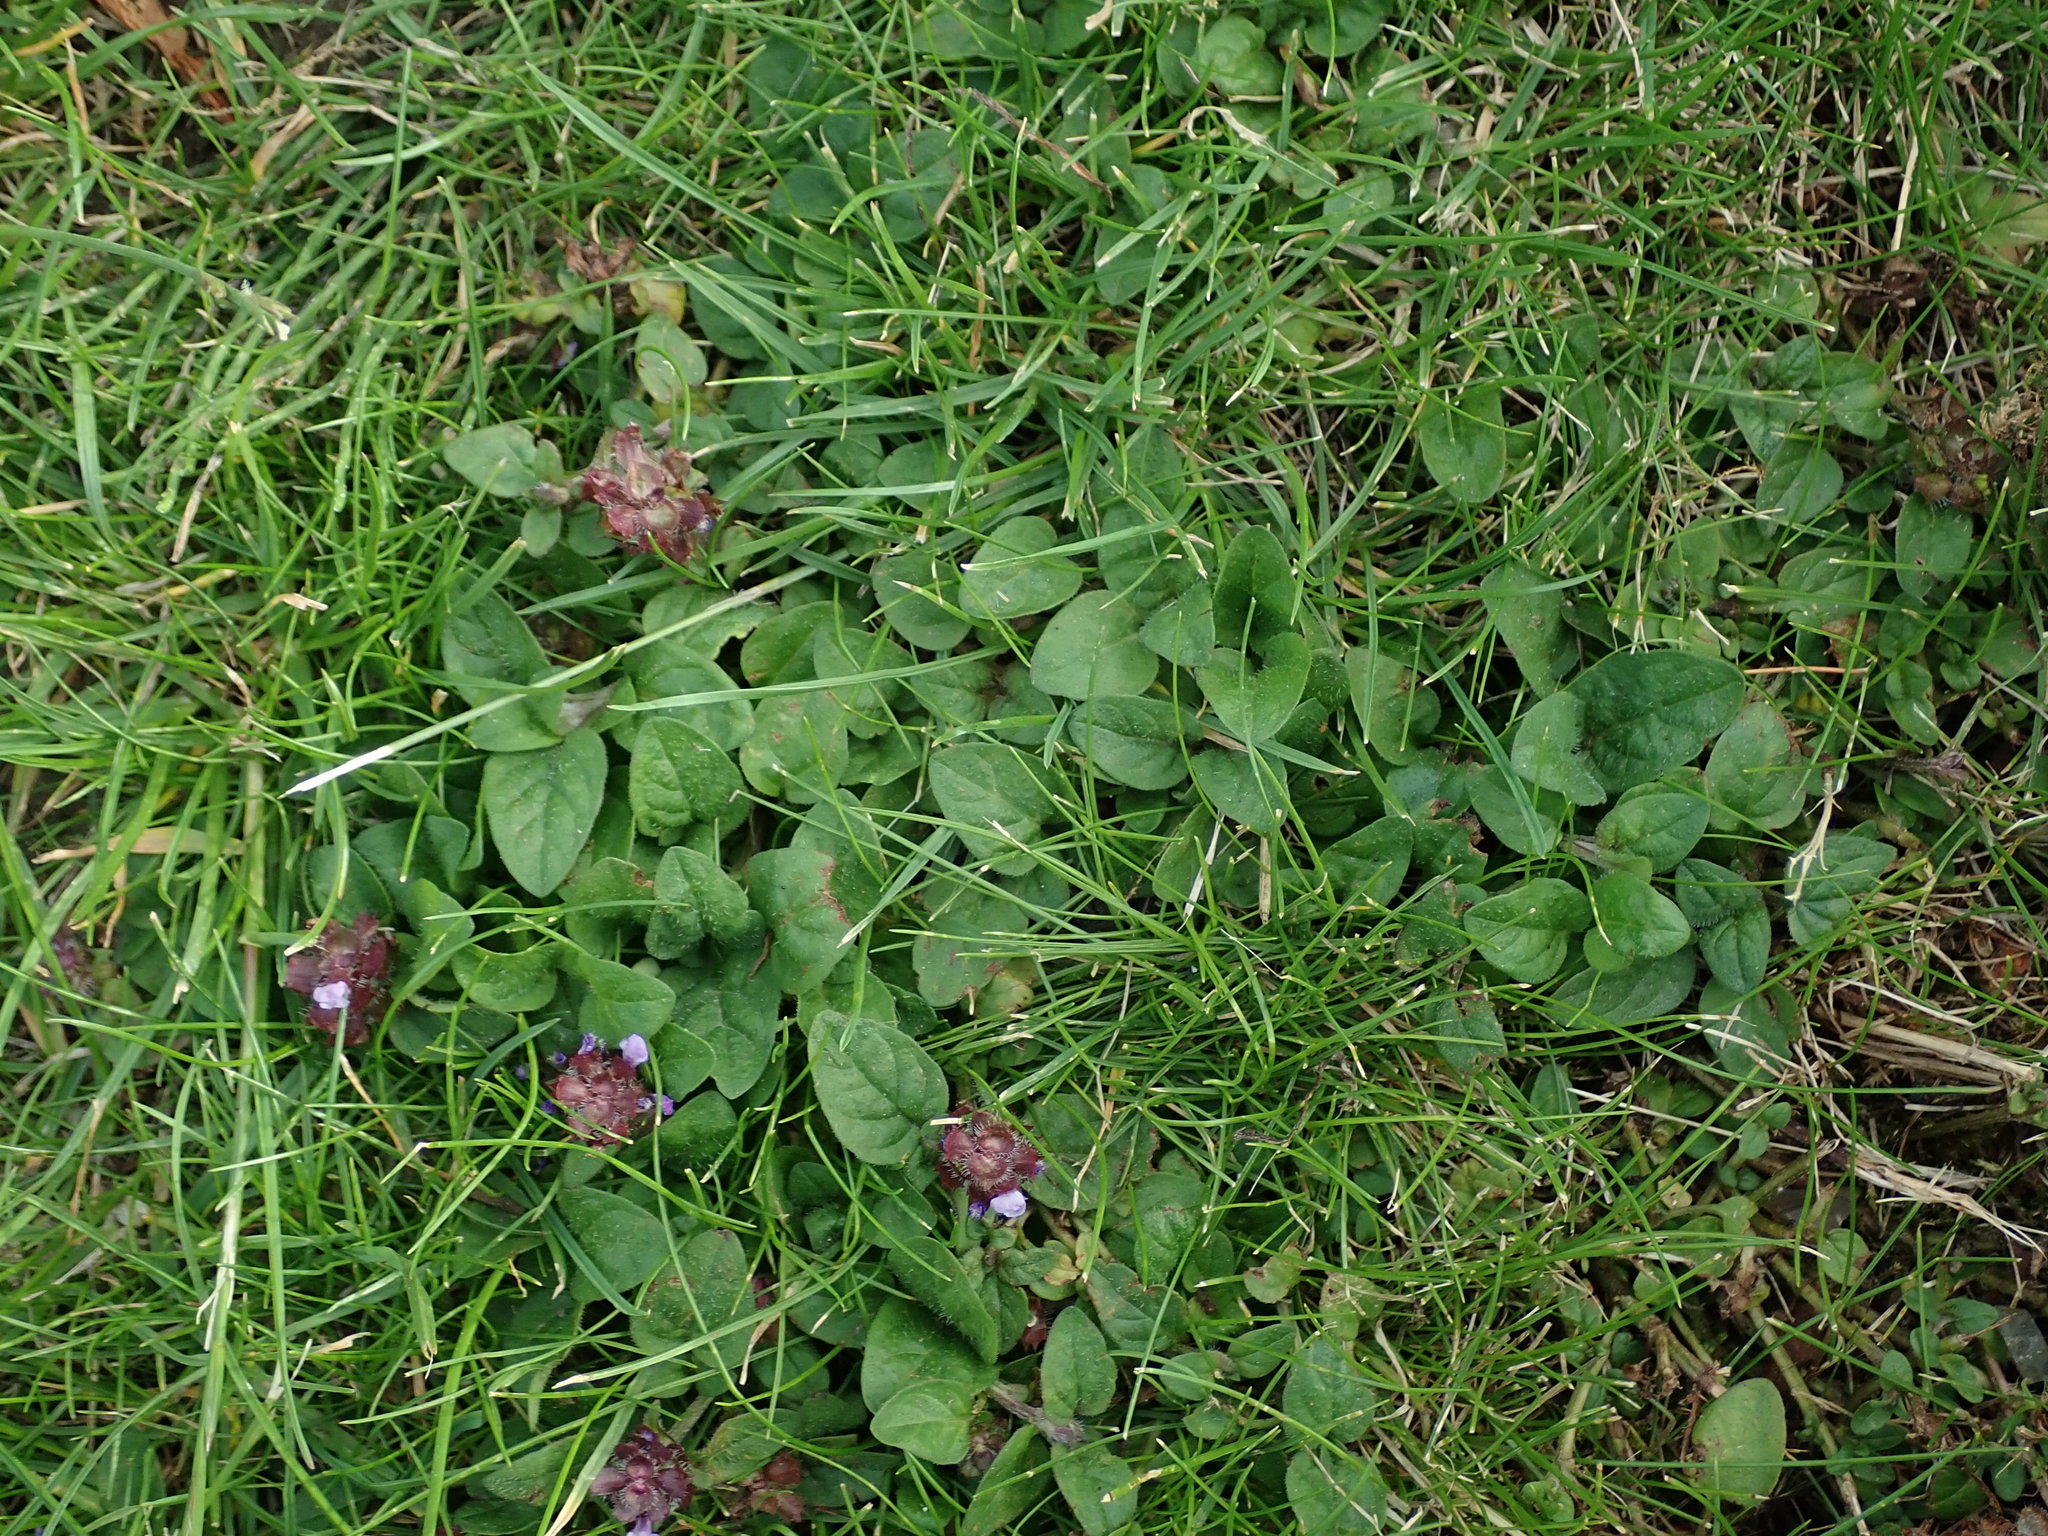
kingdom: Plantae
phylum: Tracheophyta
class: Magnoliopsida
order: Lamiales
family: Lamiaceae
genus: Prunella
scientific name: Prunella vulgaris
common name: Heal-all
